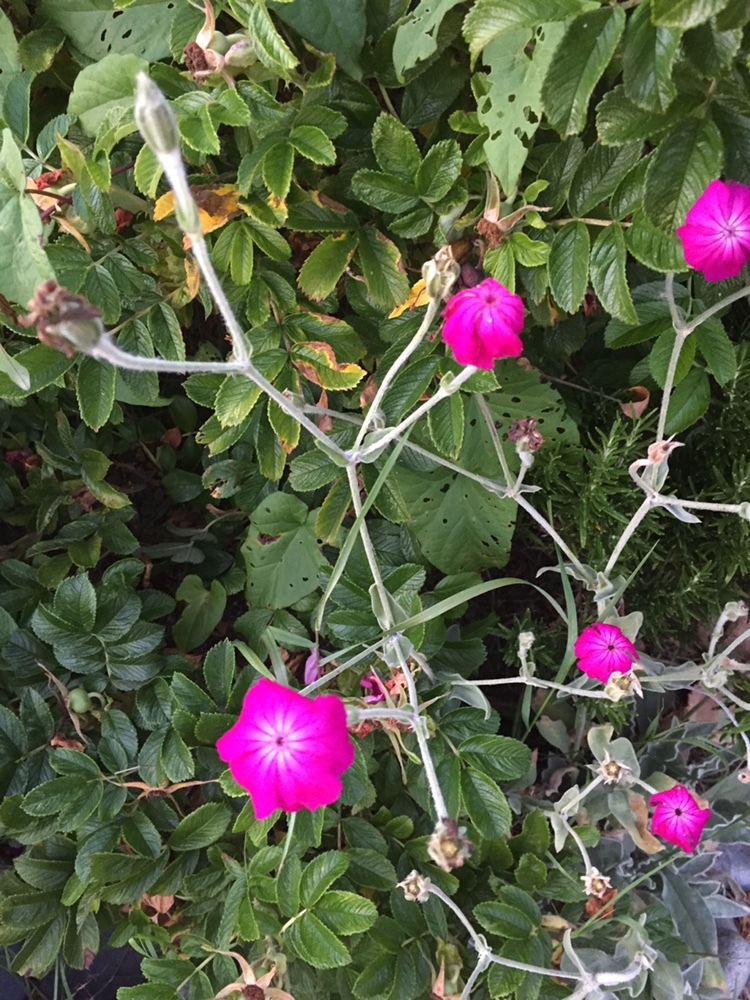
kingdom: Plantae
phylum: Tracheophyta
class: Magnoliopsida
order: Caryophyllales
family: Caryophyllaceae
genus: Silene
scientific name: Silene coronaria
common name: Rose campion
